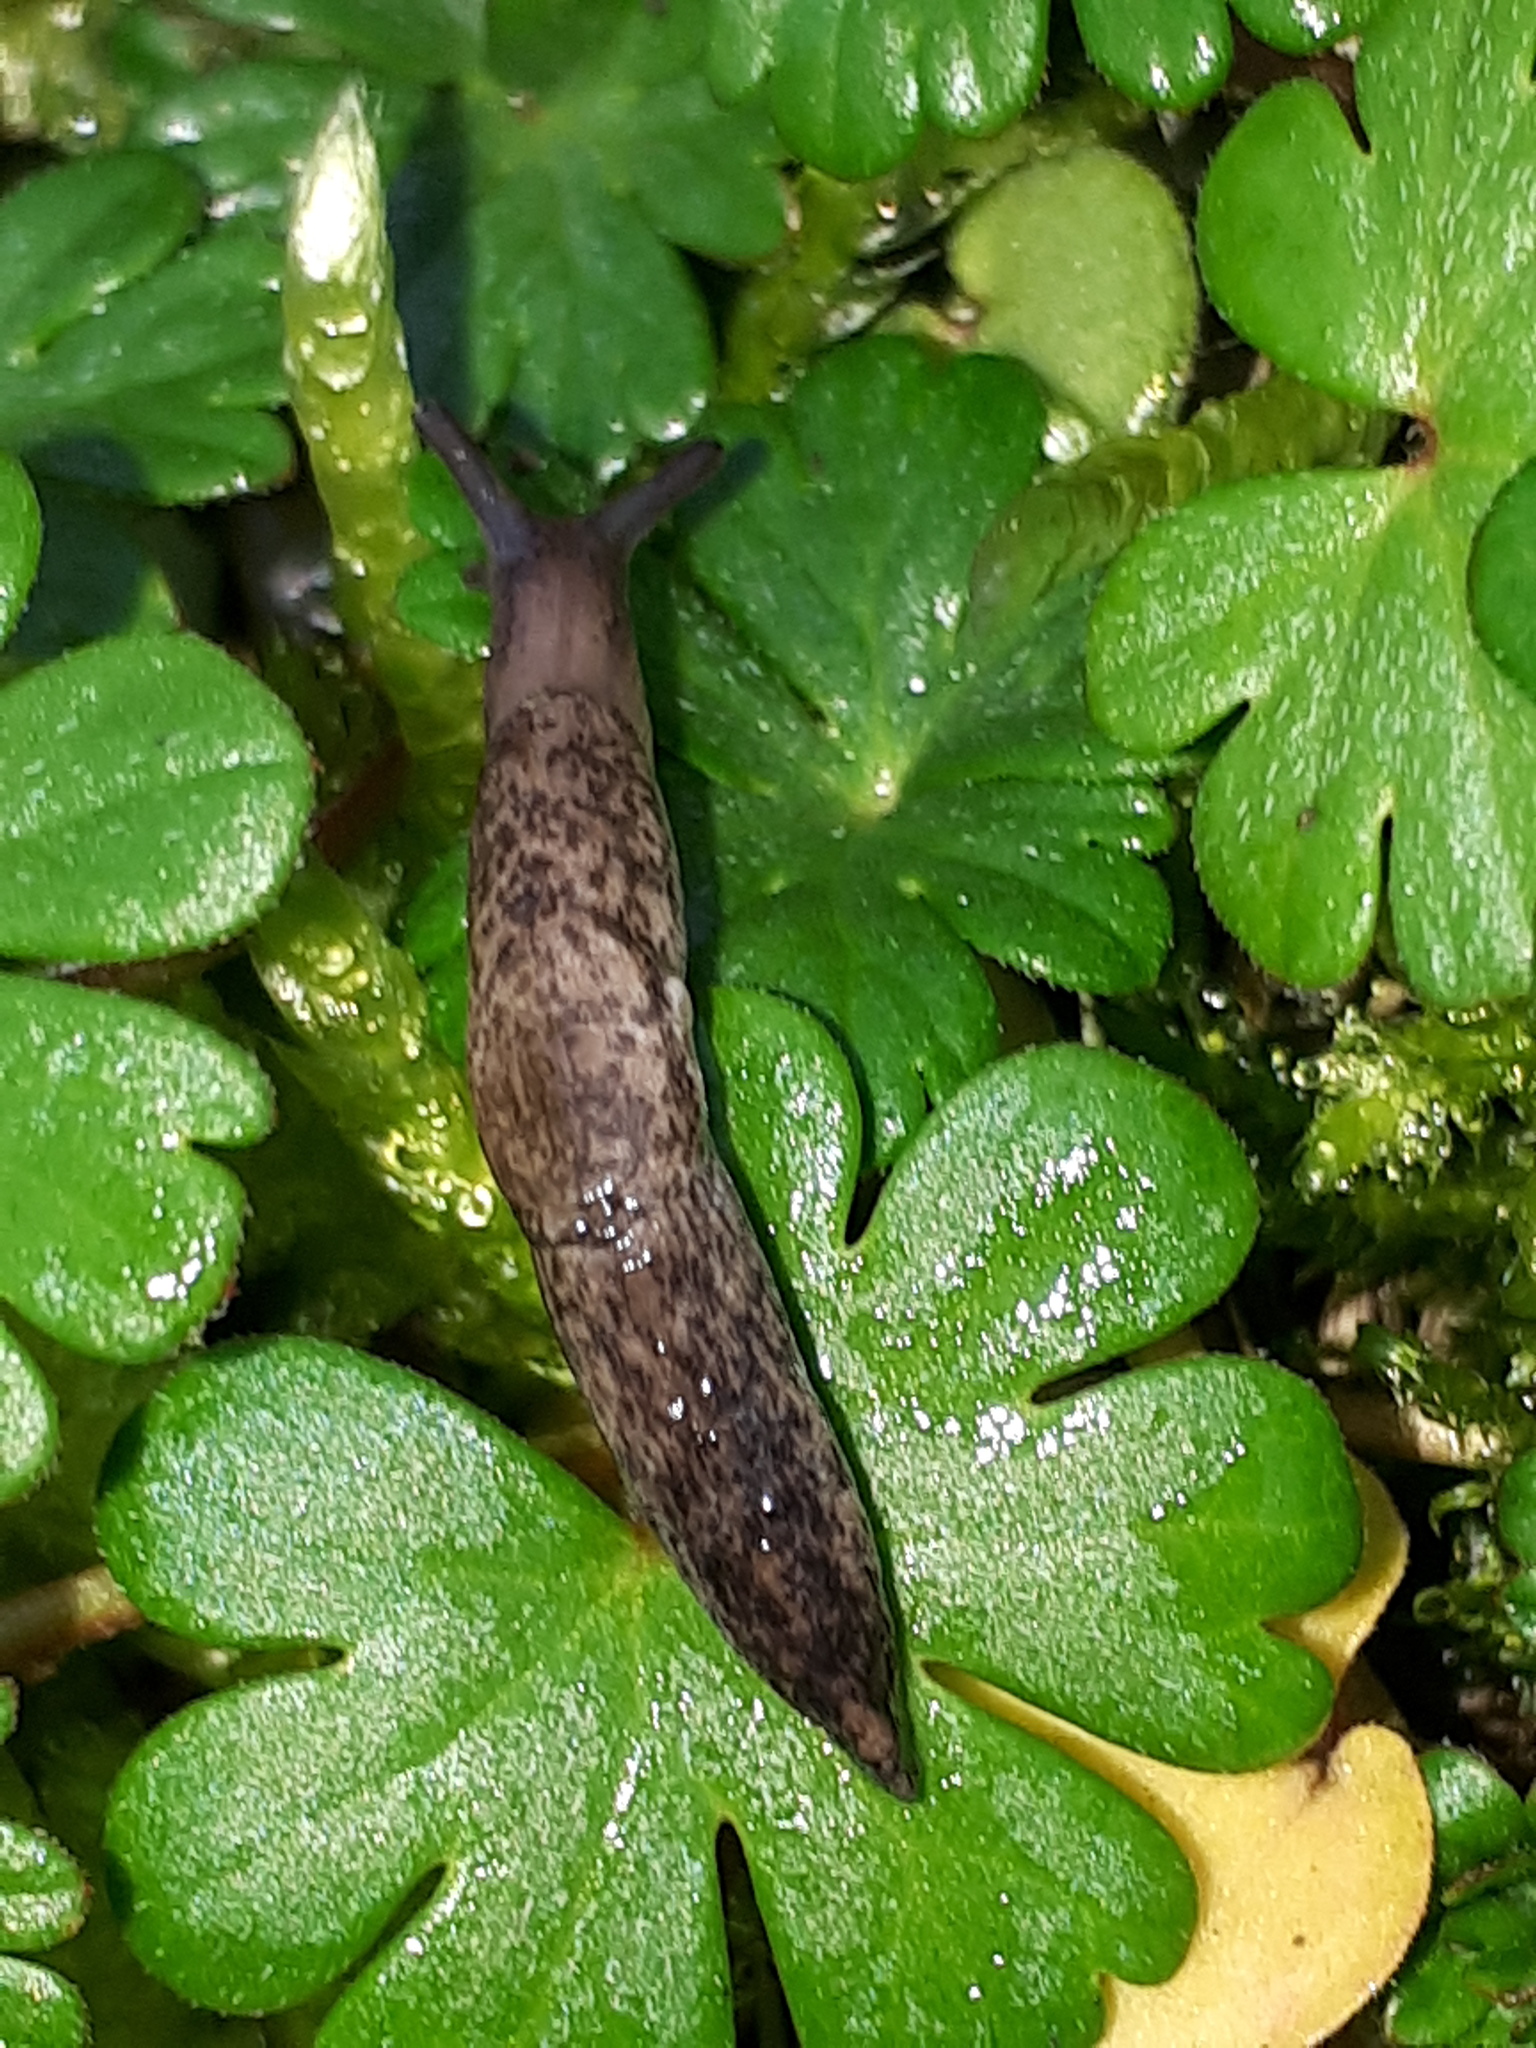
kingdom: Animalia
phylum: Mollusca
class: Gastropoda
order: Stylommatophora
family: Agriolimacidae
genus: Deroceras
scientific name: Deroceras reticulatum
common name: Gray field slug
